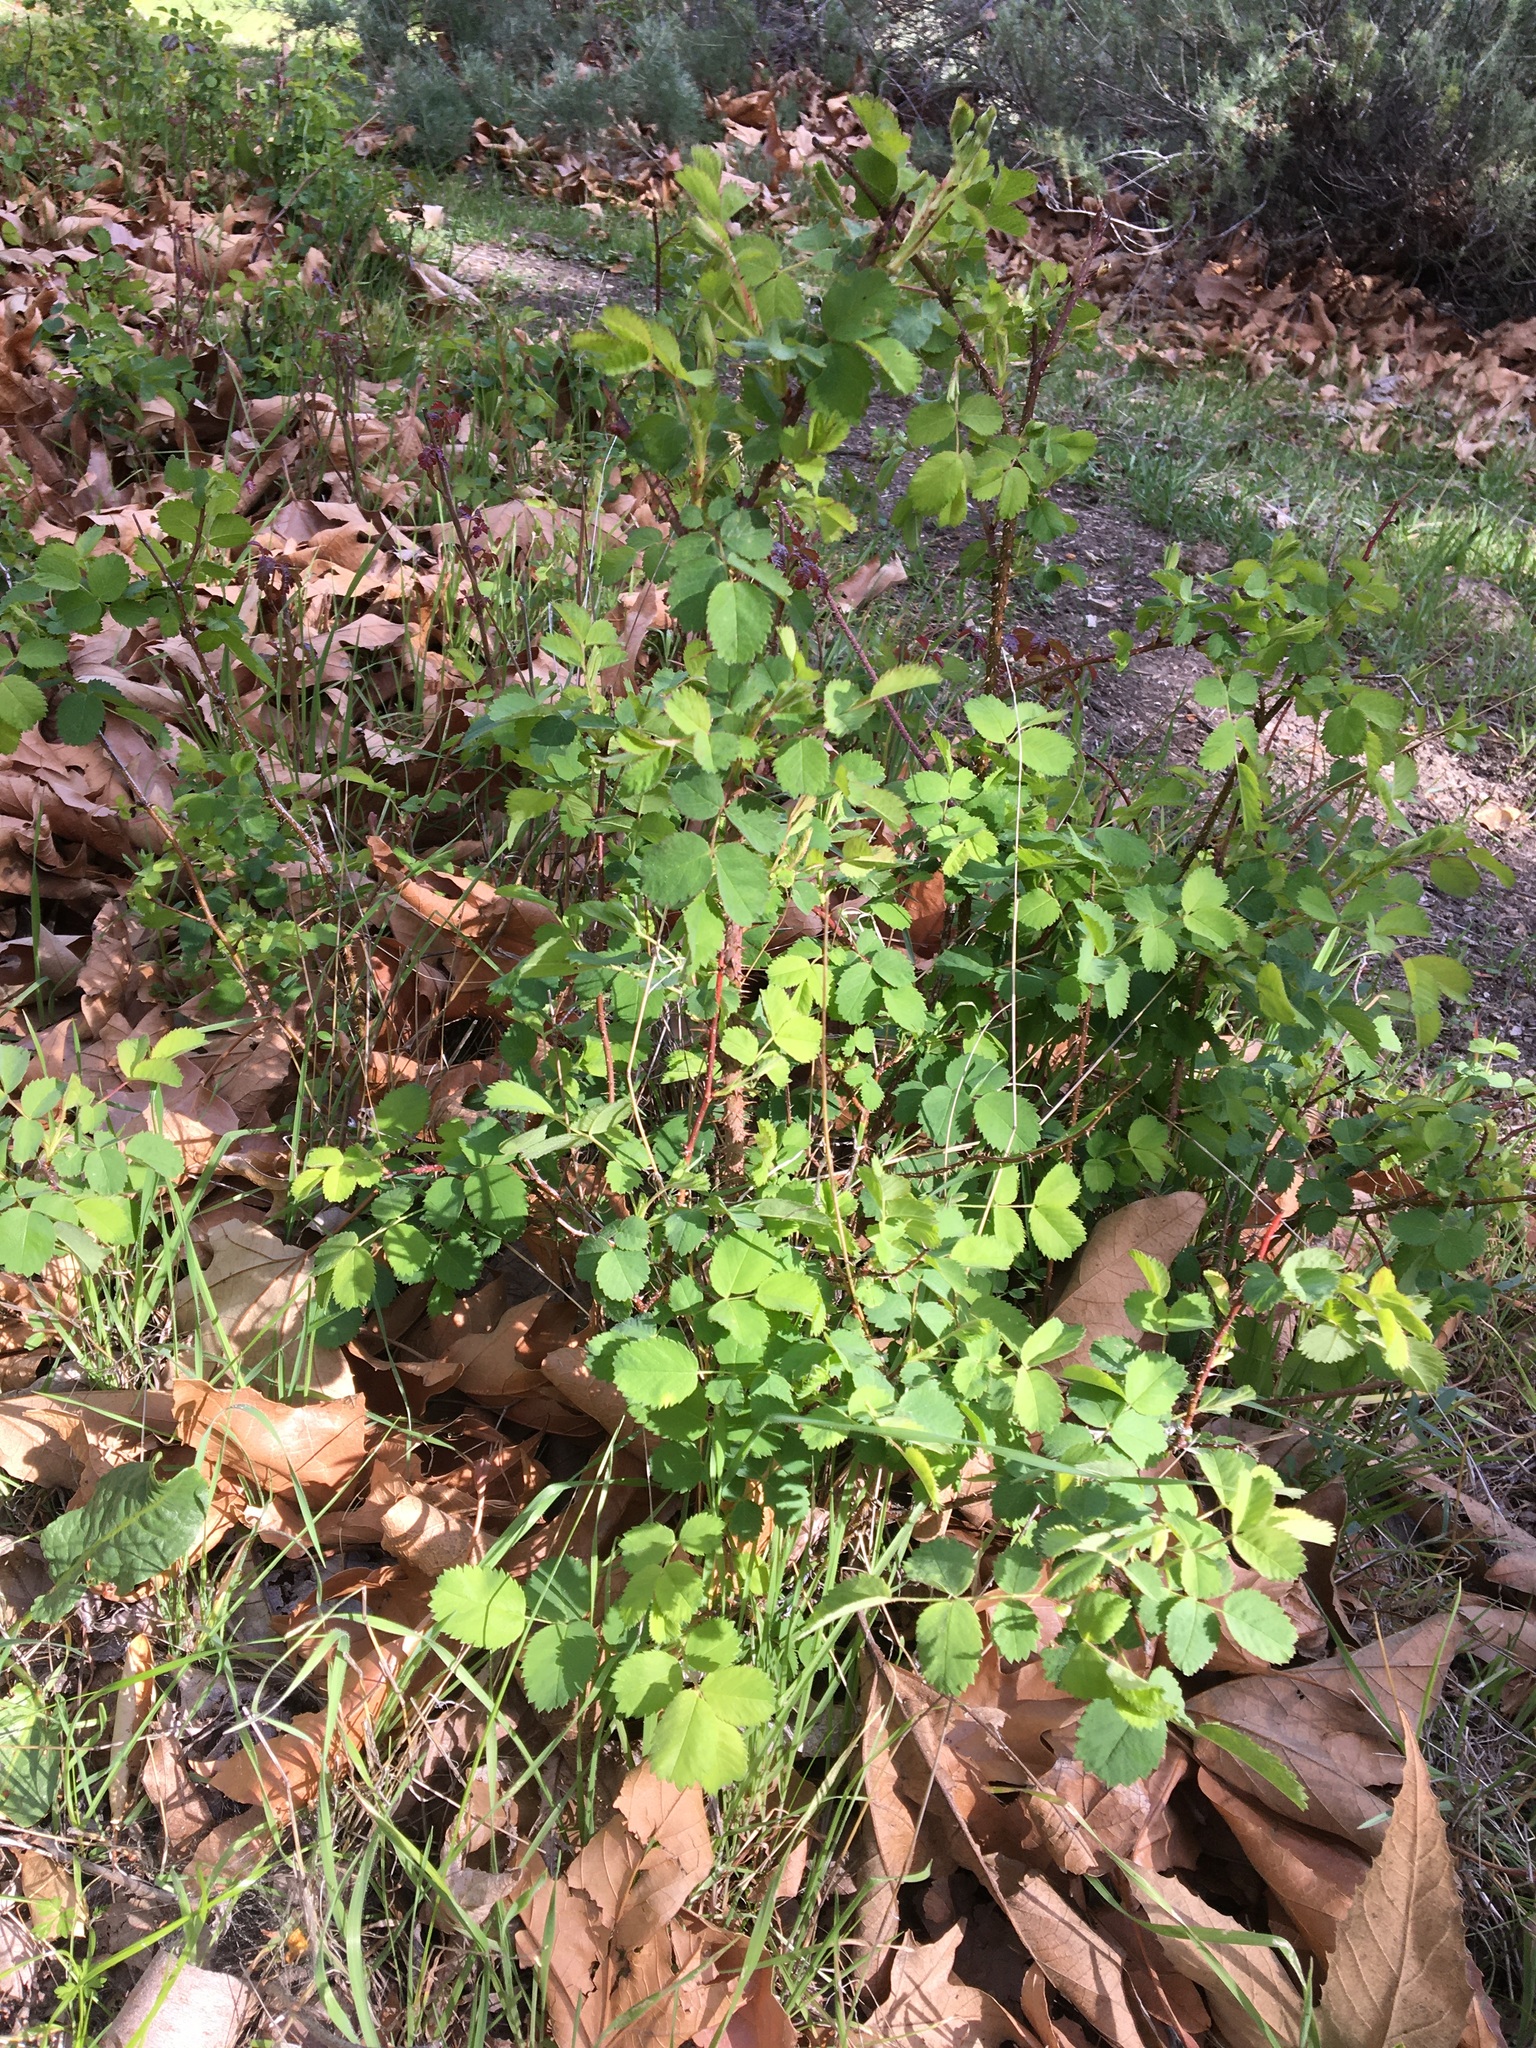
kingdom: Plantae
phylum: Tracheophyta
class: Magnoliopsida
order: Rosales
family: Rosaceae
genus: Rosa
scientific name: Rosa californica
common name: California rose
